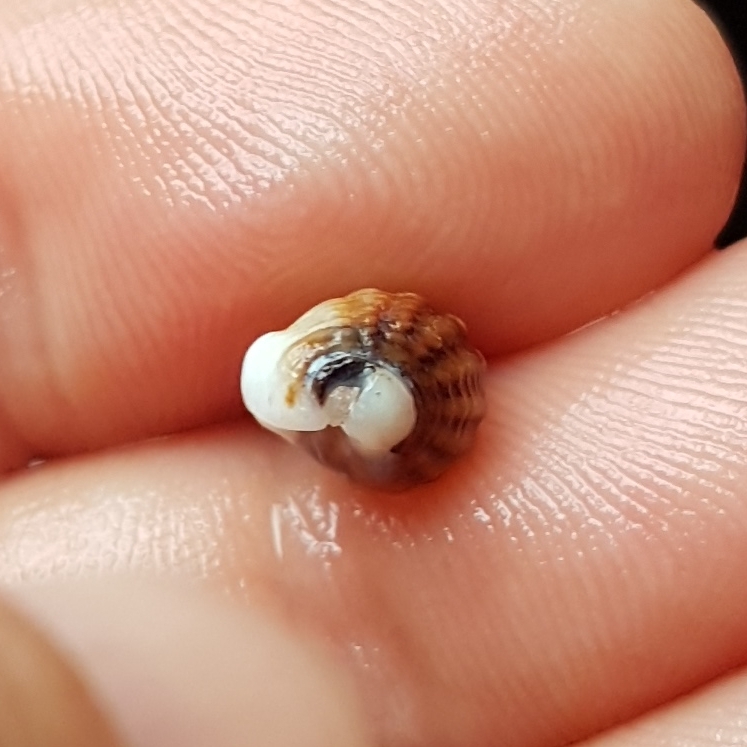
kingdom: Animalia
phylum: Mollusca
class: Gastropoda
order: Neogastropoda
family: Nassariidae
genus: Tritia
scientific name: Tritia incrassata
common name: Thick-lipped dog whelk
